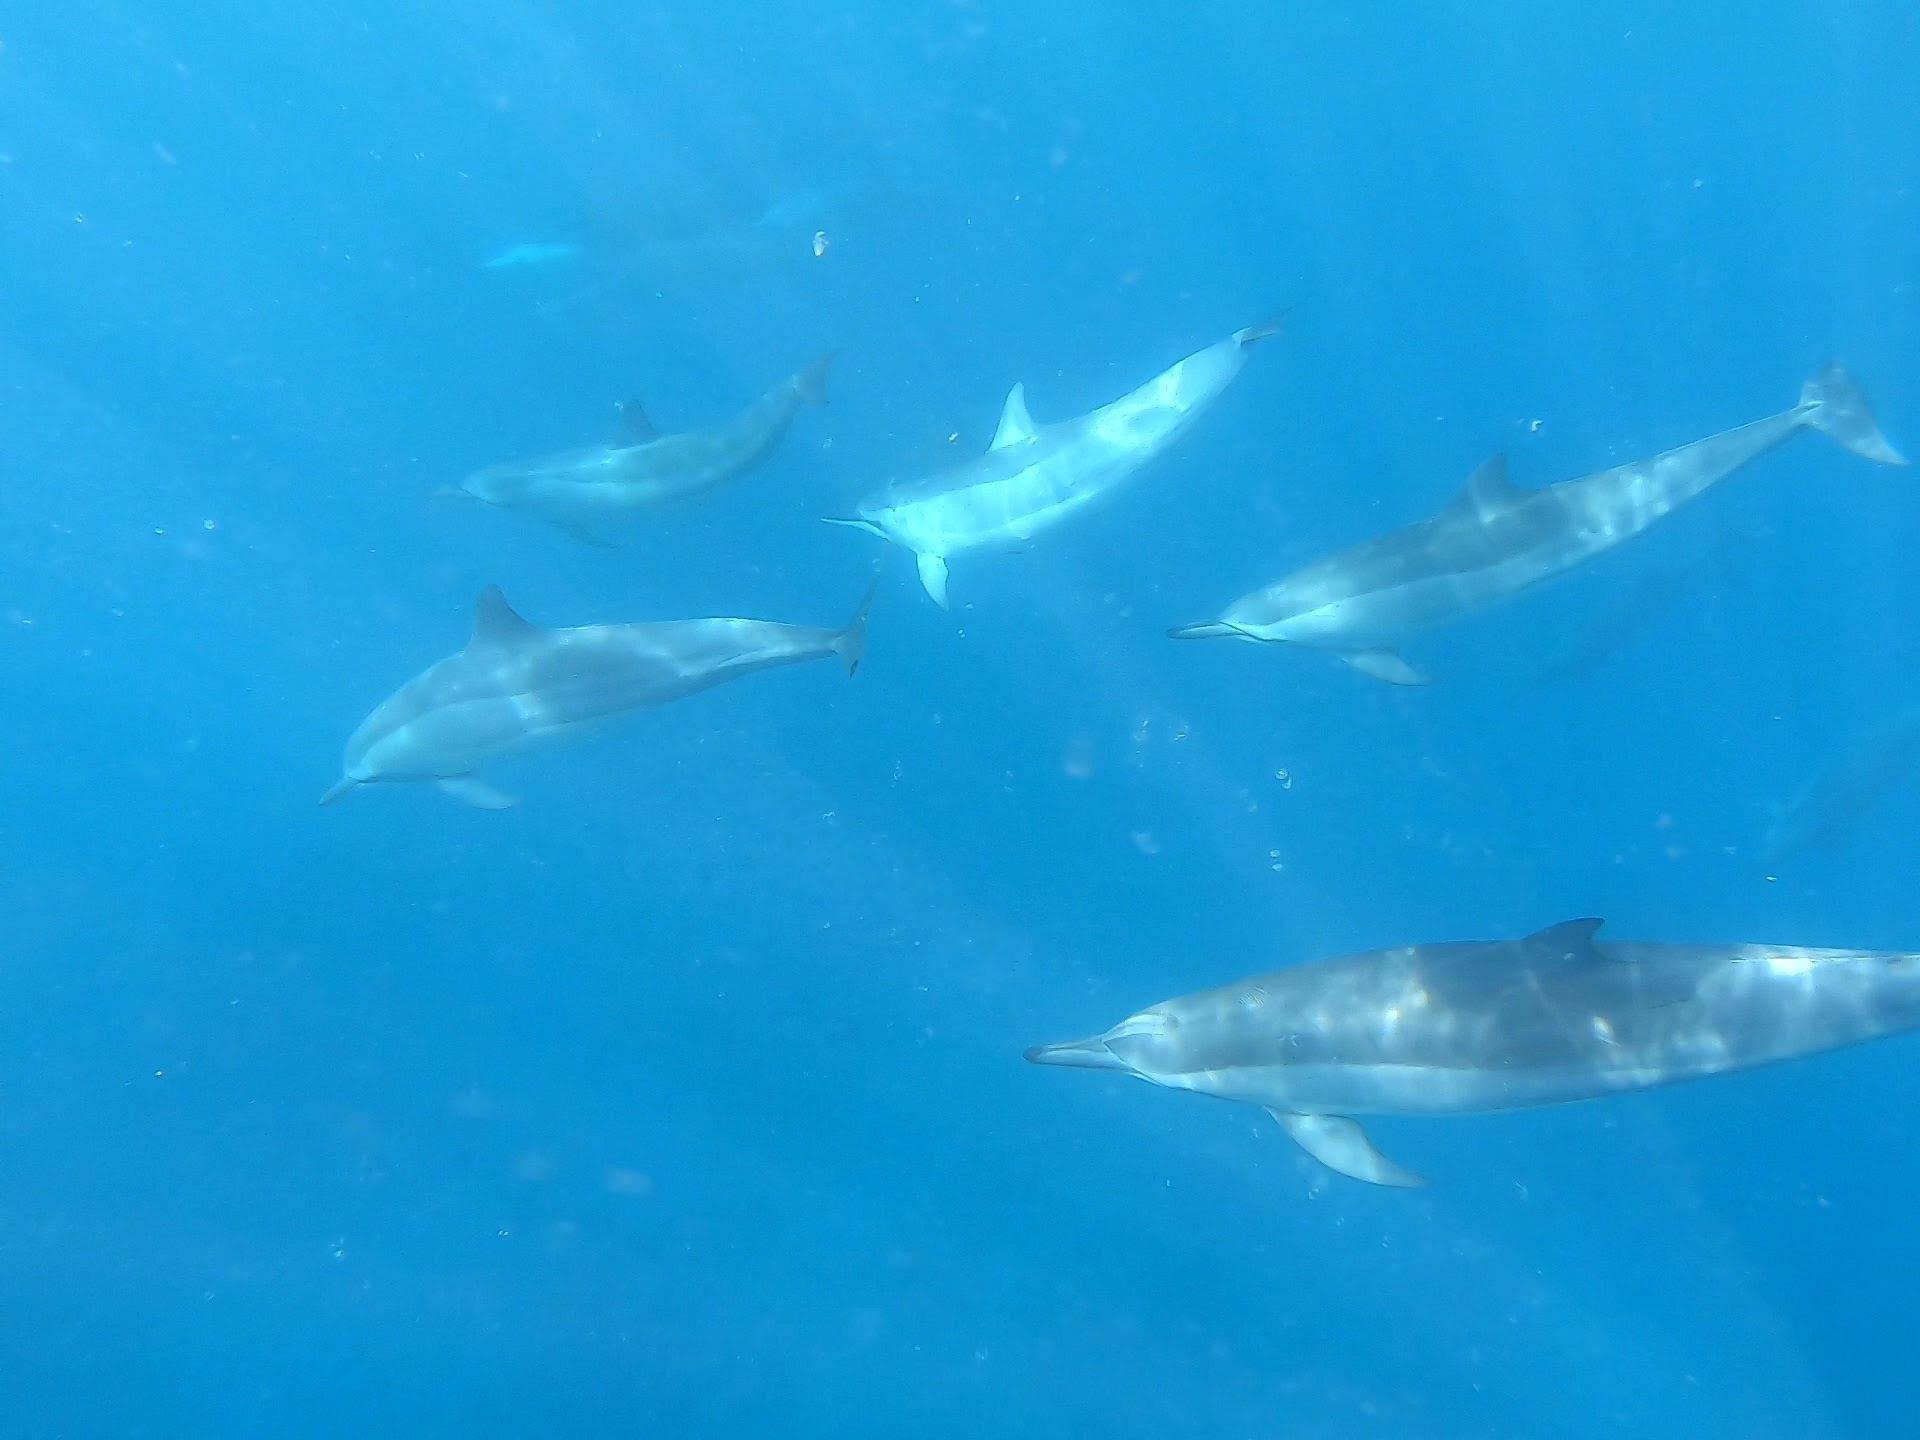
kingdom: Animalia
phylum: Chordata
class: Mammalia
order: Cetacea
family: Delphinidae
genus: Stenella
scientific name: Stenella longirostris
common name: Spinner dolphin
